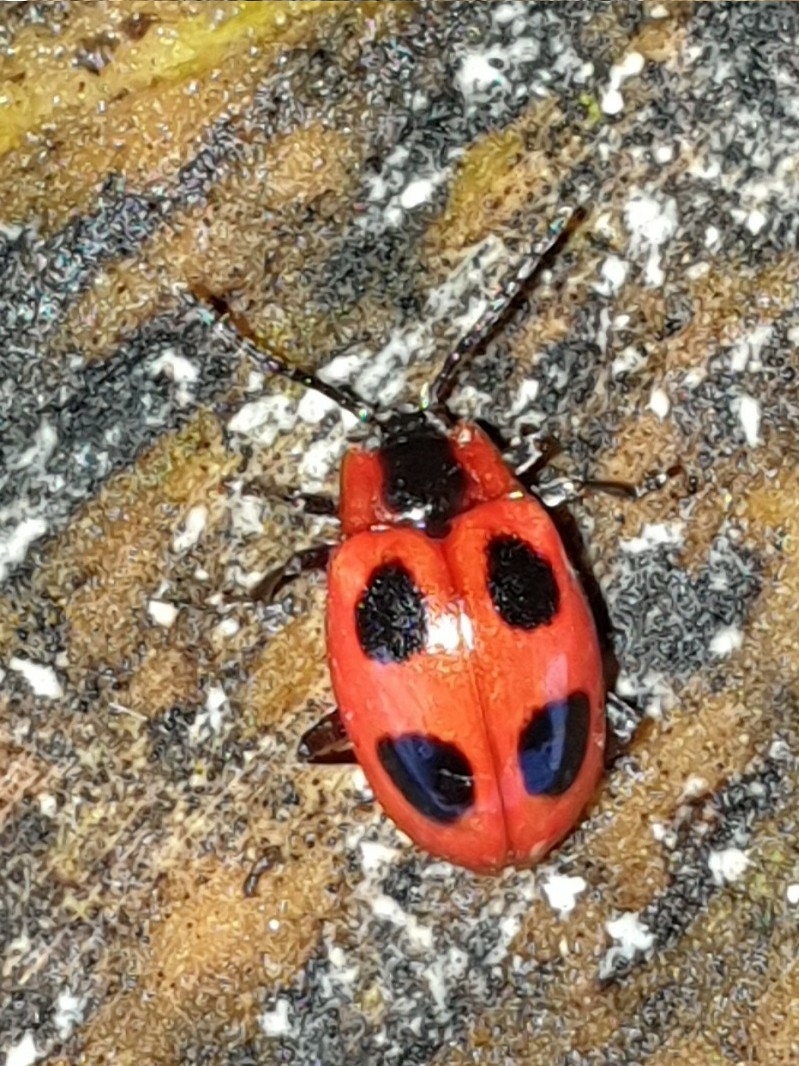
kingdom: Animalia
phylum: Arthropoda
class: Insecta
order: Coleoptera
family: Endomychidae
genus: Endomychus
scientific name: Endomychus coccineus
